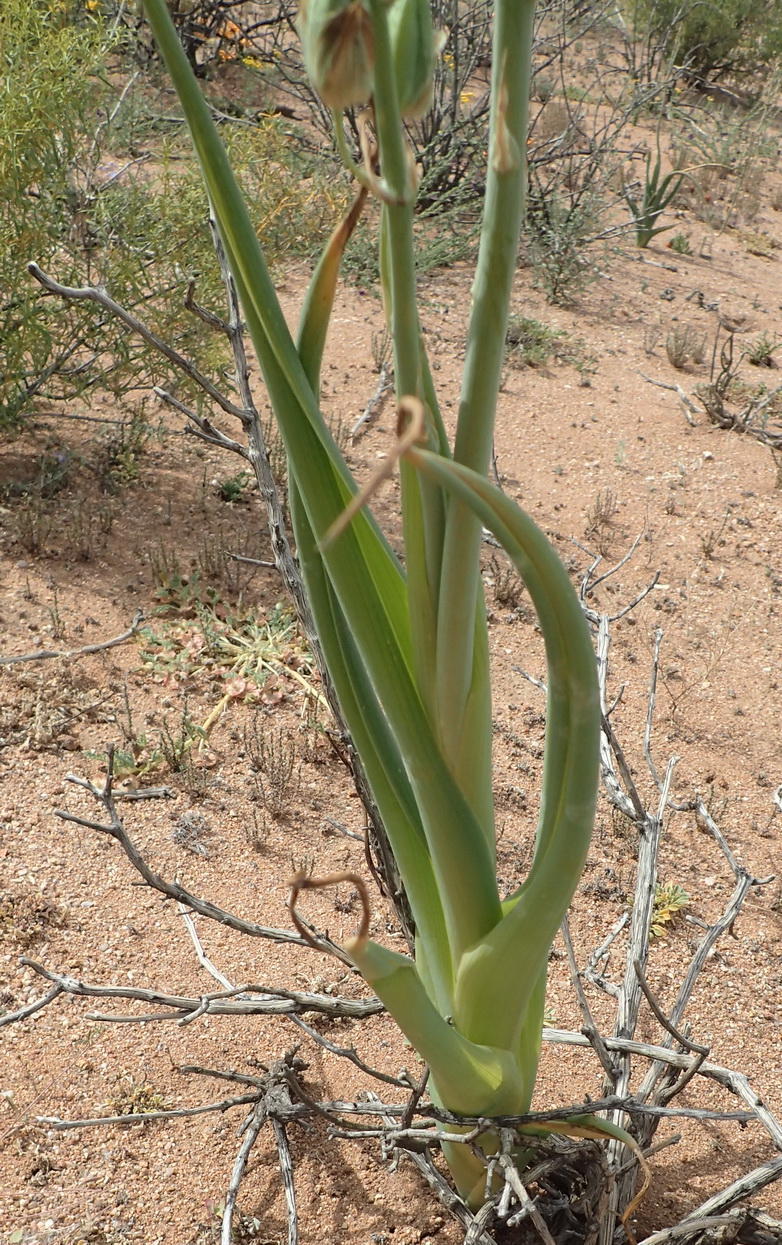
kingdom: Plantae
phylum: Tracheophyta
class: Liliopsida
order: Asparagales
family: Asparagaceae
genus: Albuca
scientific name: Albuca canadensis
